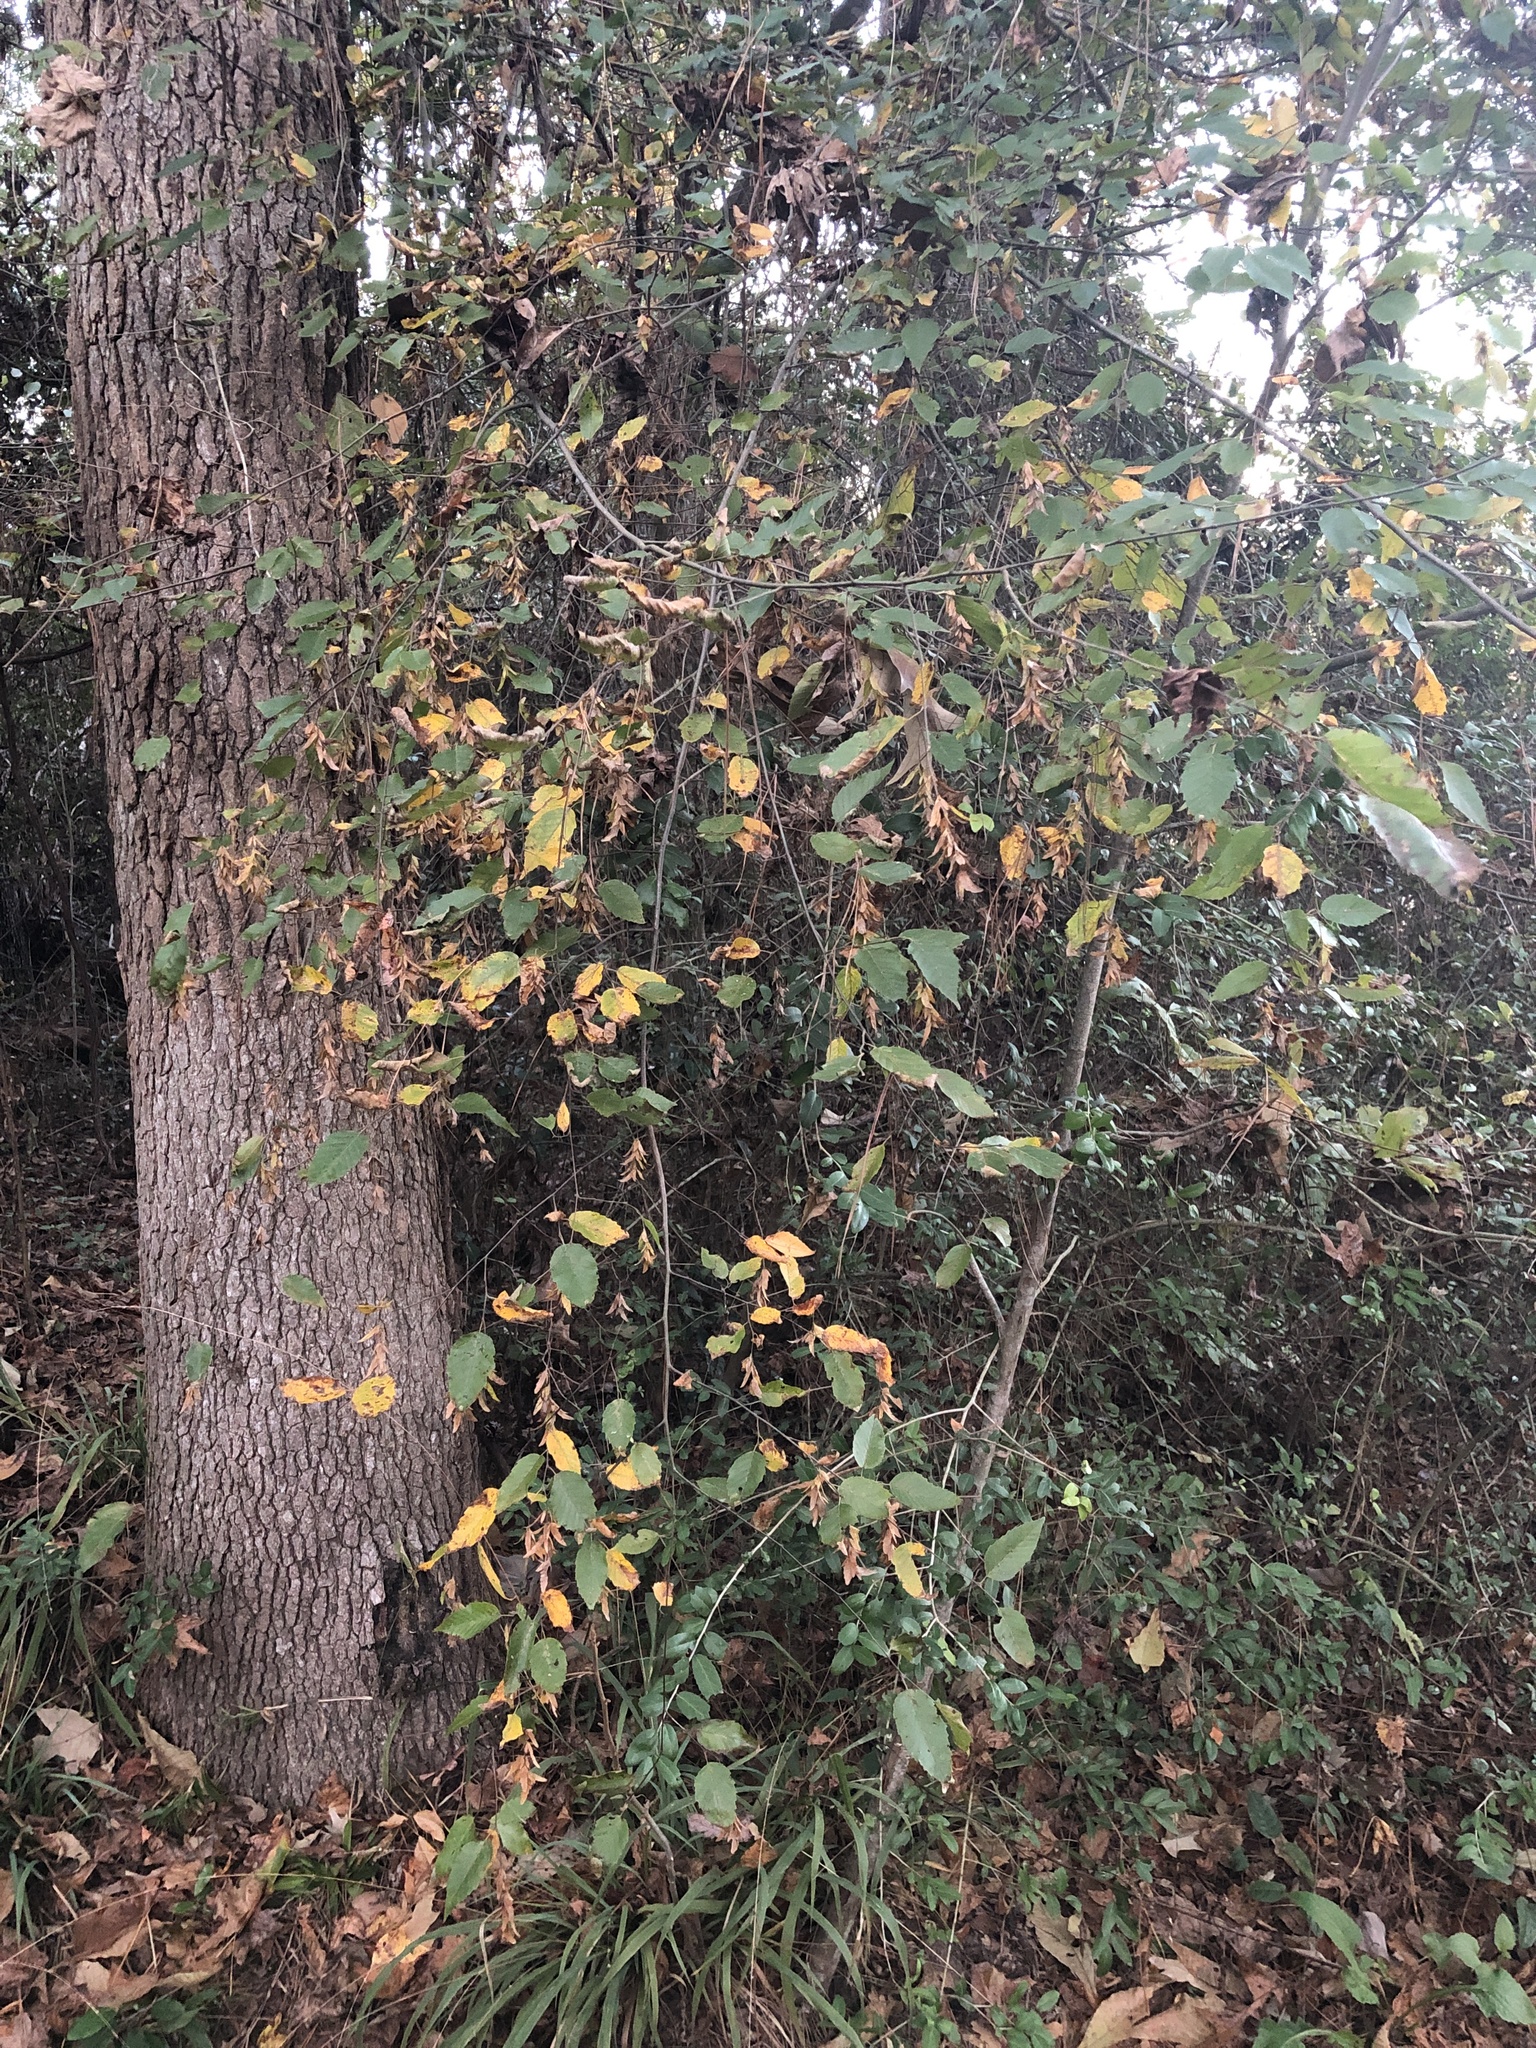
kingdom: Plantae
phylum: Tracheophyta
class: Magnoliopsida
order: Fagales
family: Betulaceae
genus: Carpinus
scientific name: Carpinus caroliniana
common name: American hornbeam
